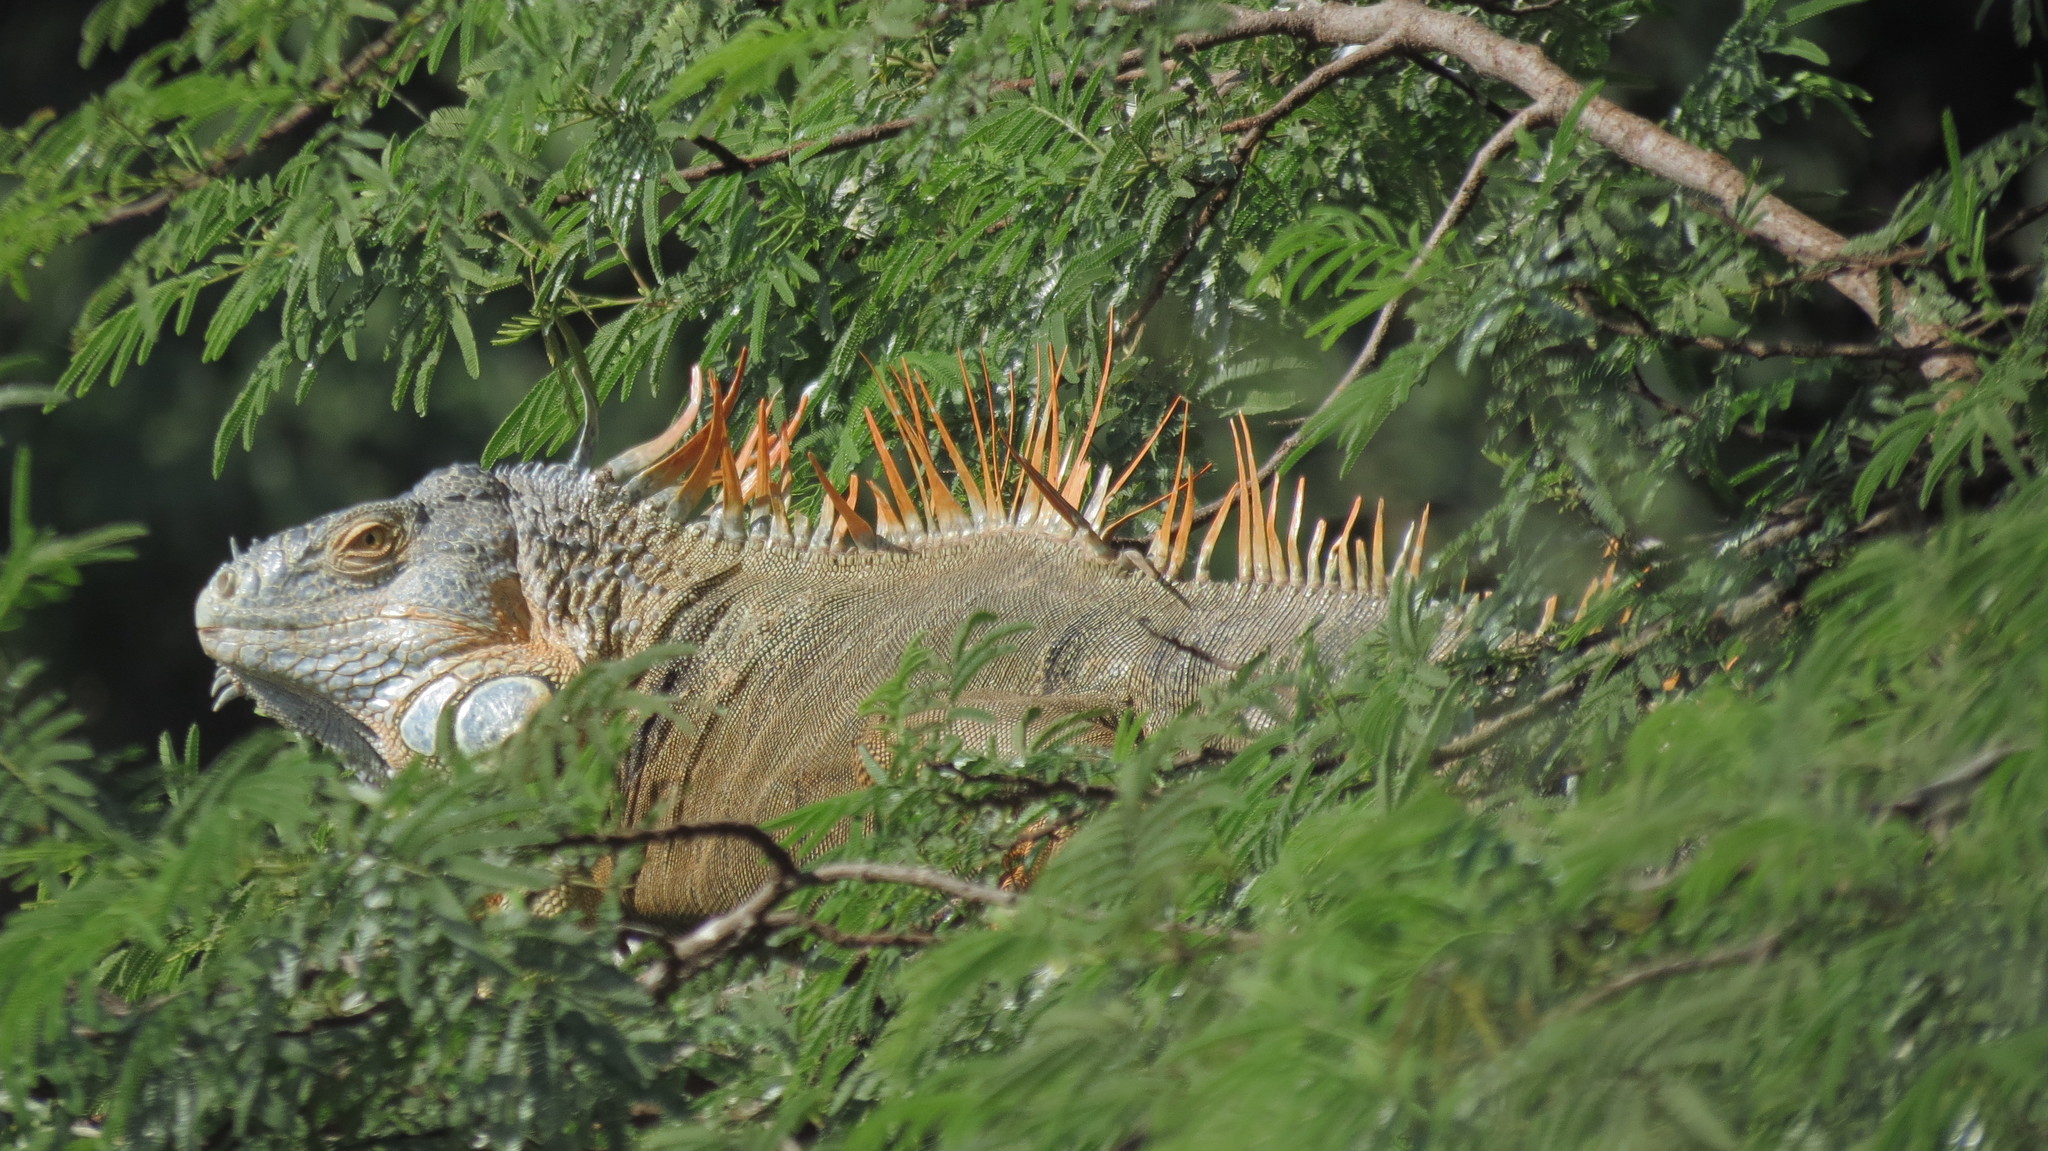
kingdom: Animalia
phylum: Chordata
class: Squamata
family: Iguanidae
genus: Iguana
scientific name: Iguana iguana
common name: Green iguana
